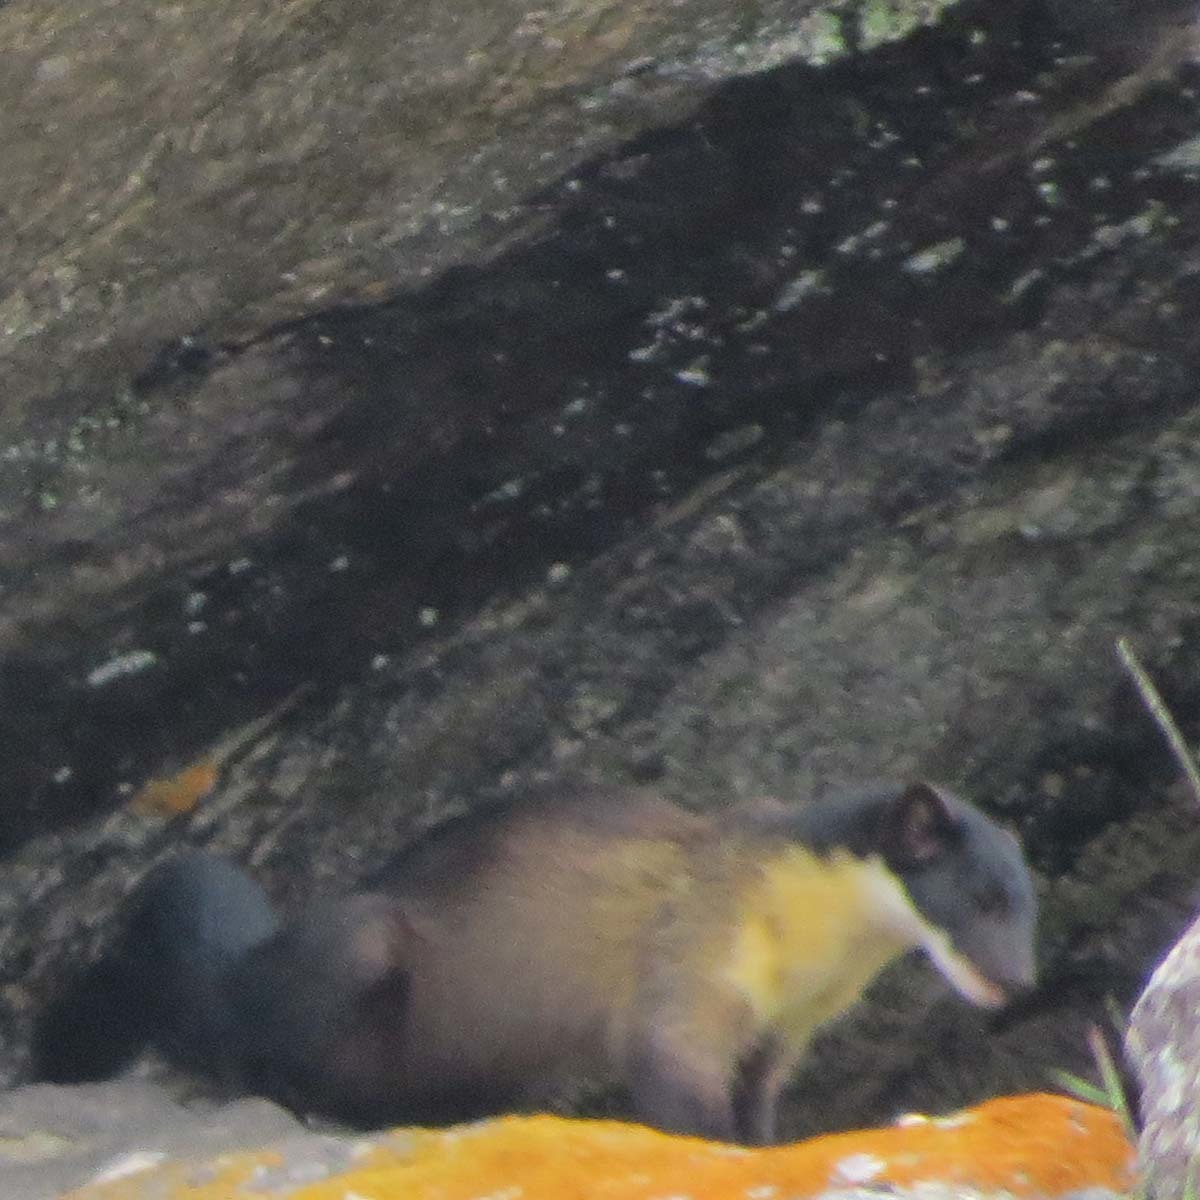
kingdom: Animalia
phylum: Chordata
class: Mammalia
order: Carnivora
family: Mustelidae
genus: Martes
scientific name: Martes flavigula
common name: Yellow-throated marten
